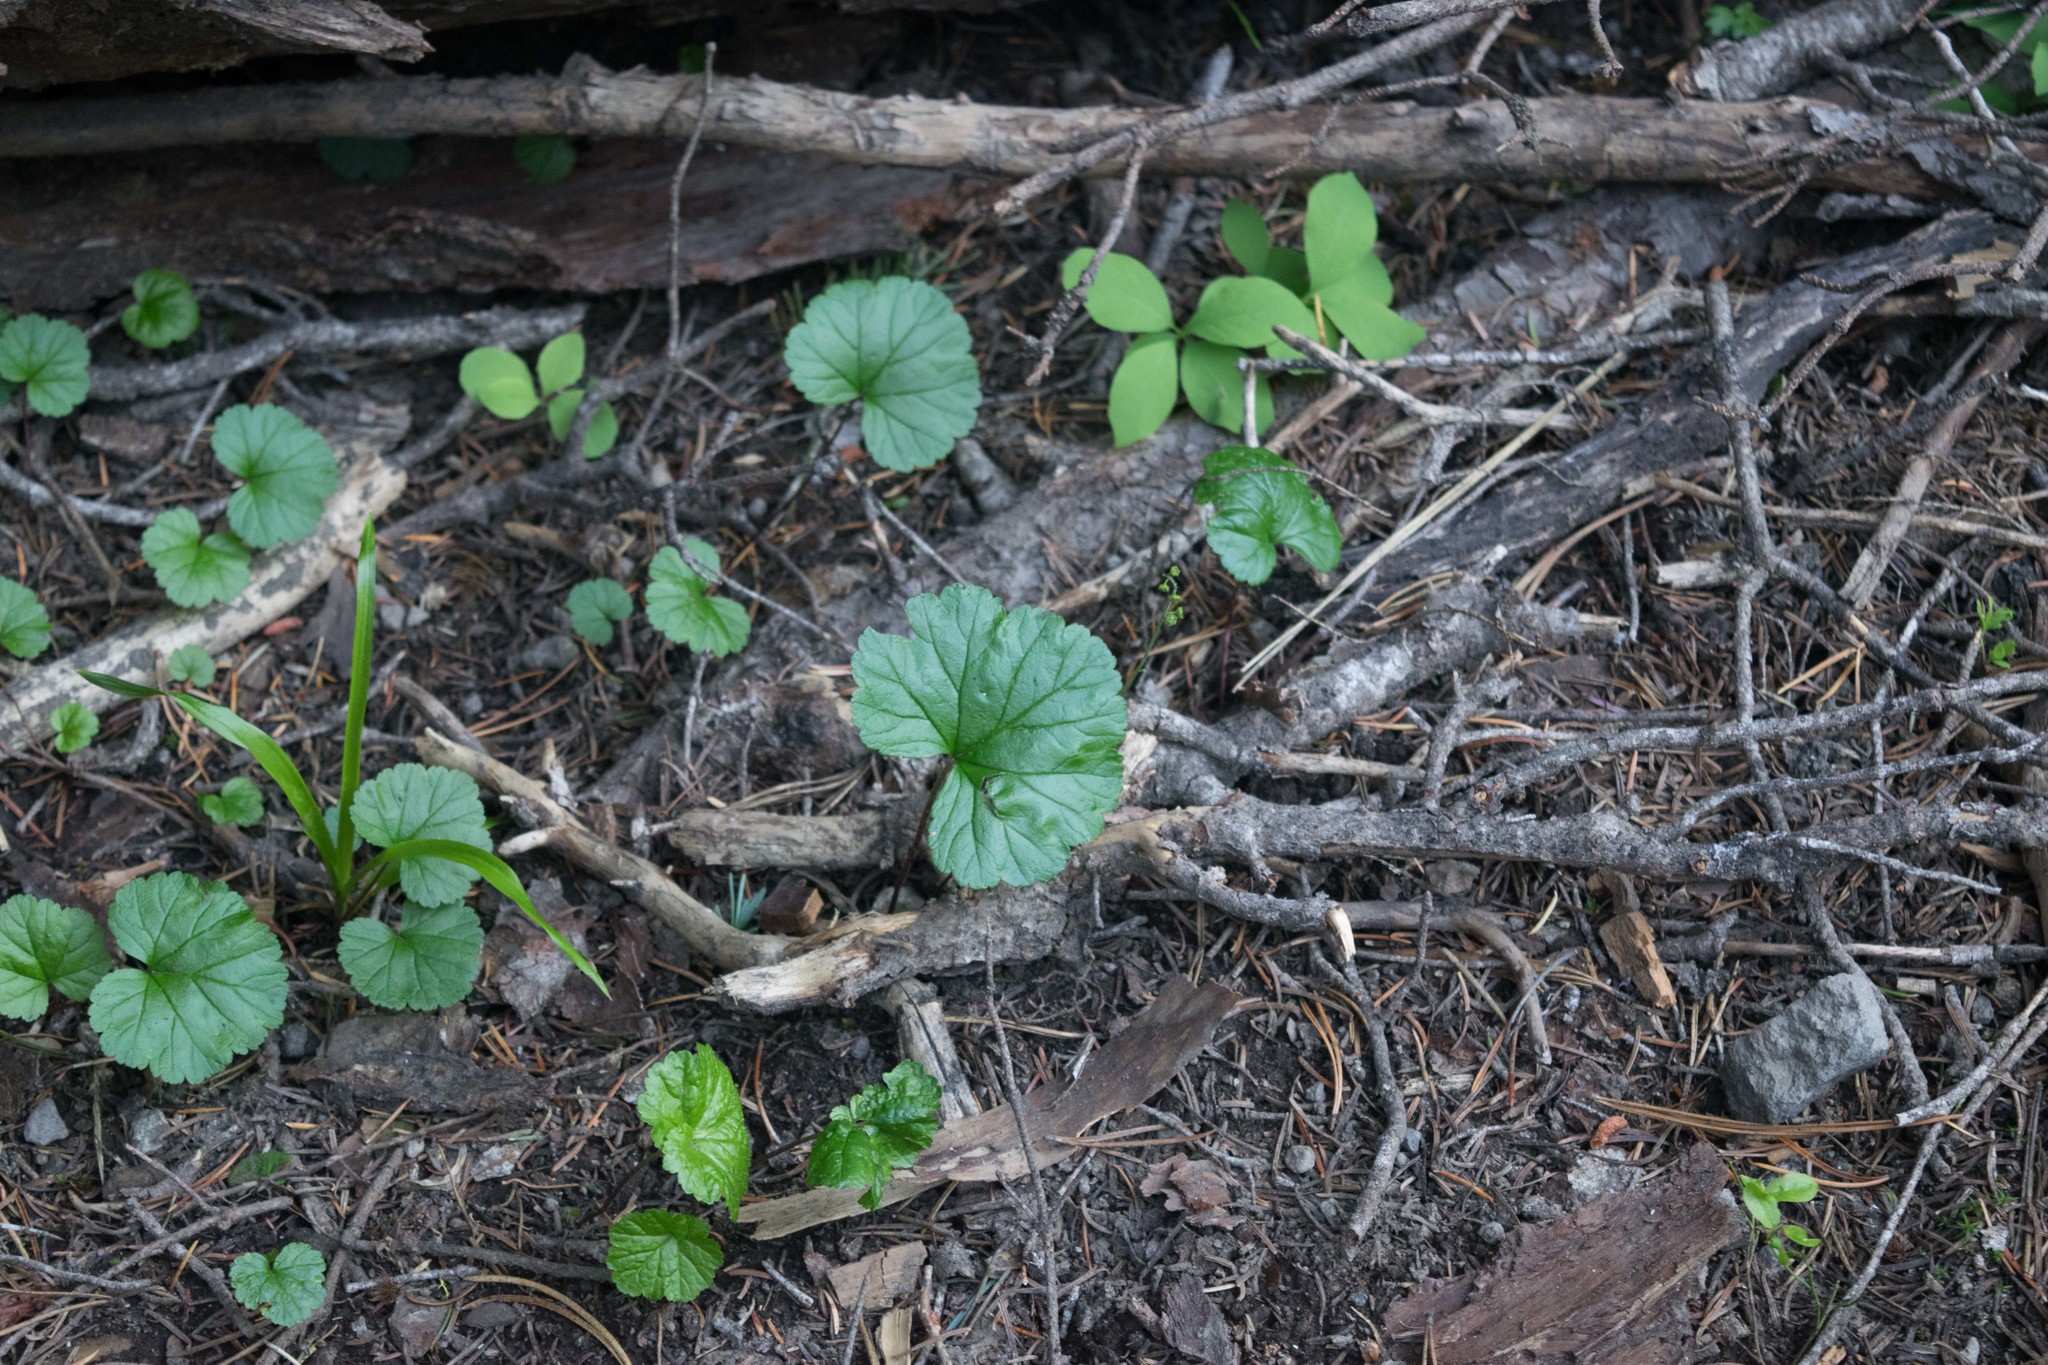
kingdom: Plantae
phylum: Tracheophyta
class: Magnoliopsida
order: Saxifragales
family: Saxifragaceae
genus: Brewerimitella
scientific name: Brewerimitella breweri
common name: Brewer's bishop's-cap
